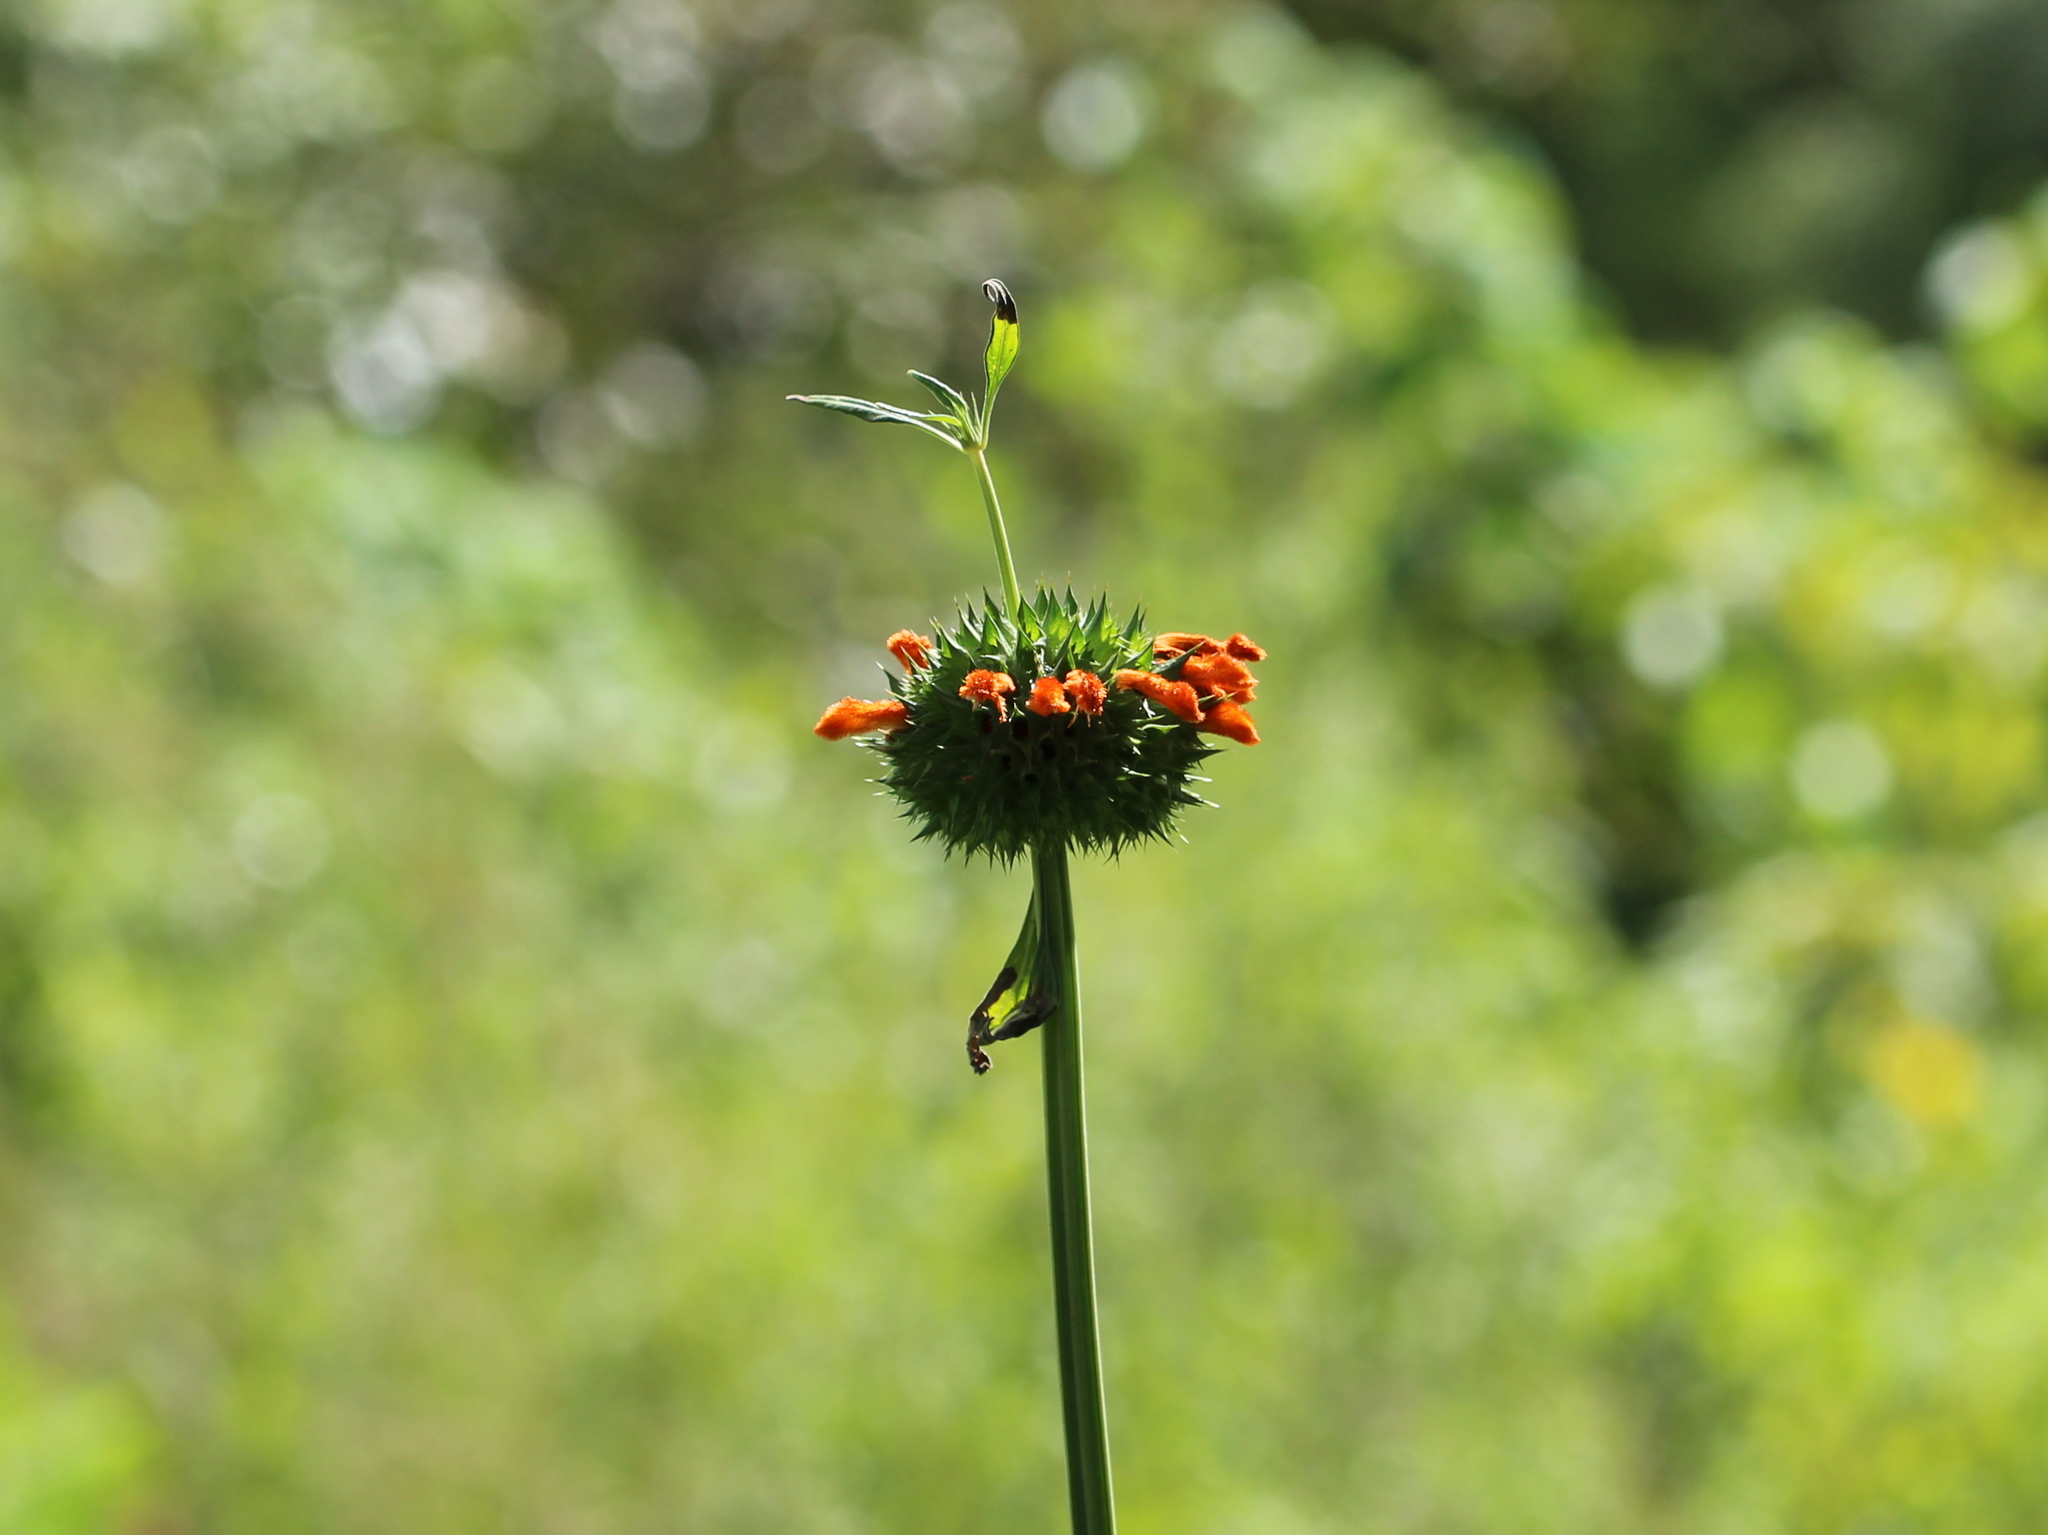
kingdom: Plantae
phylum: Tracheophyta
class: Magnoliopsida
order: Lamiales
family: Lamiaceae
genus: Leonotis
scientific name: Leonotis nepetifolia
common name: Christmas candlestick
